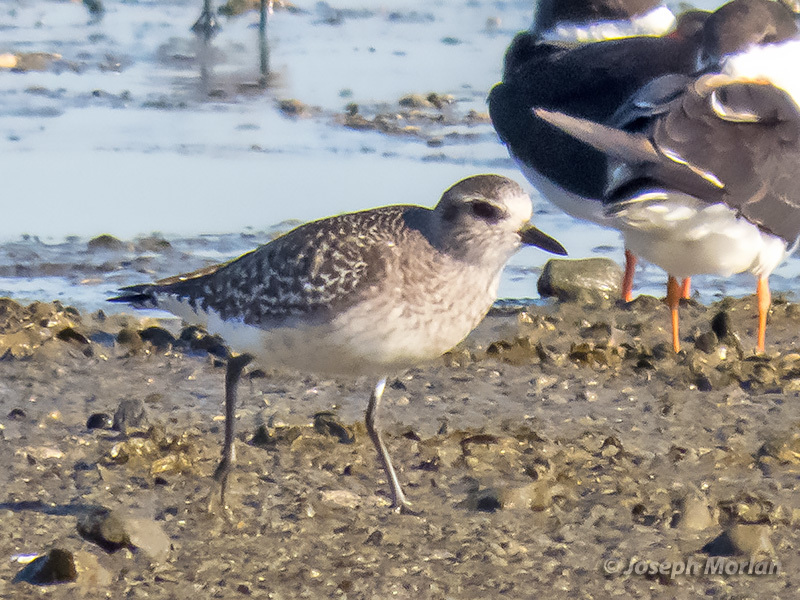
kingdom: Animalia
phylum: Chordata
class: Aves
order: Charadriiformes
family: Charadriidae
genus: Pluvialis
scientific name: Pluvialis squatarola
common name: Grey plover
